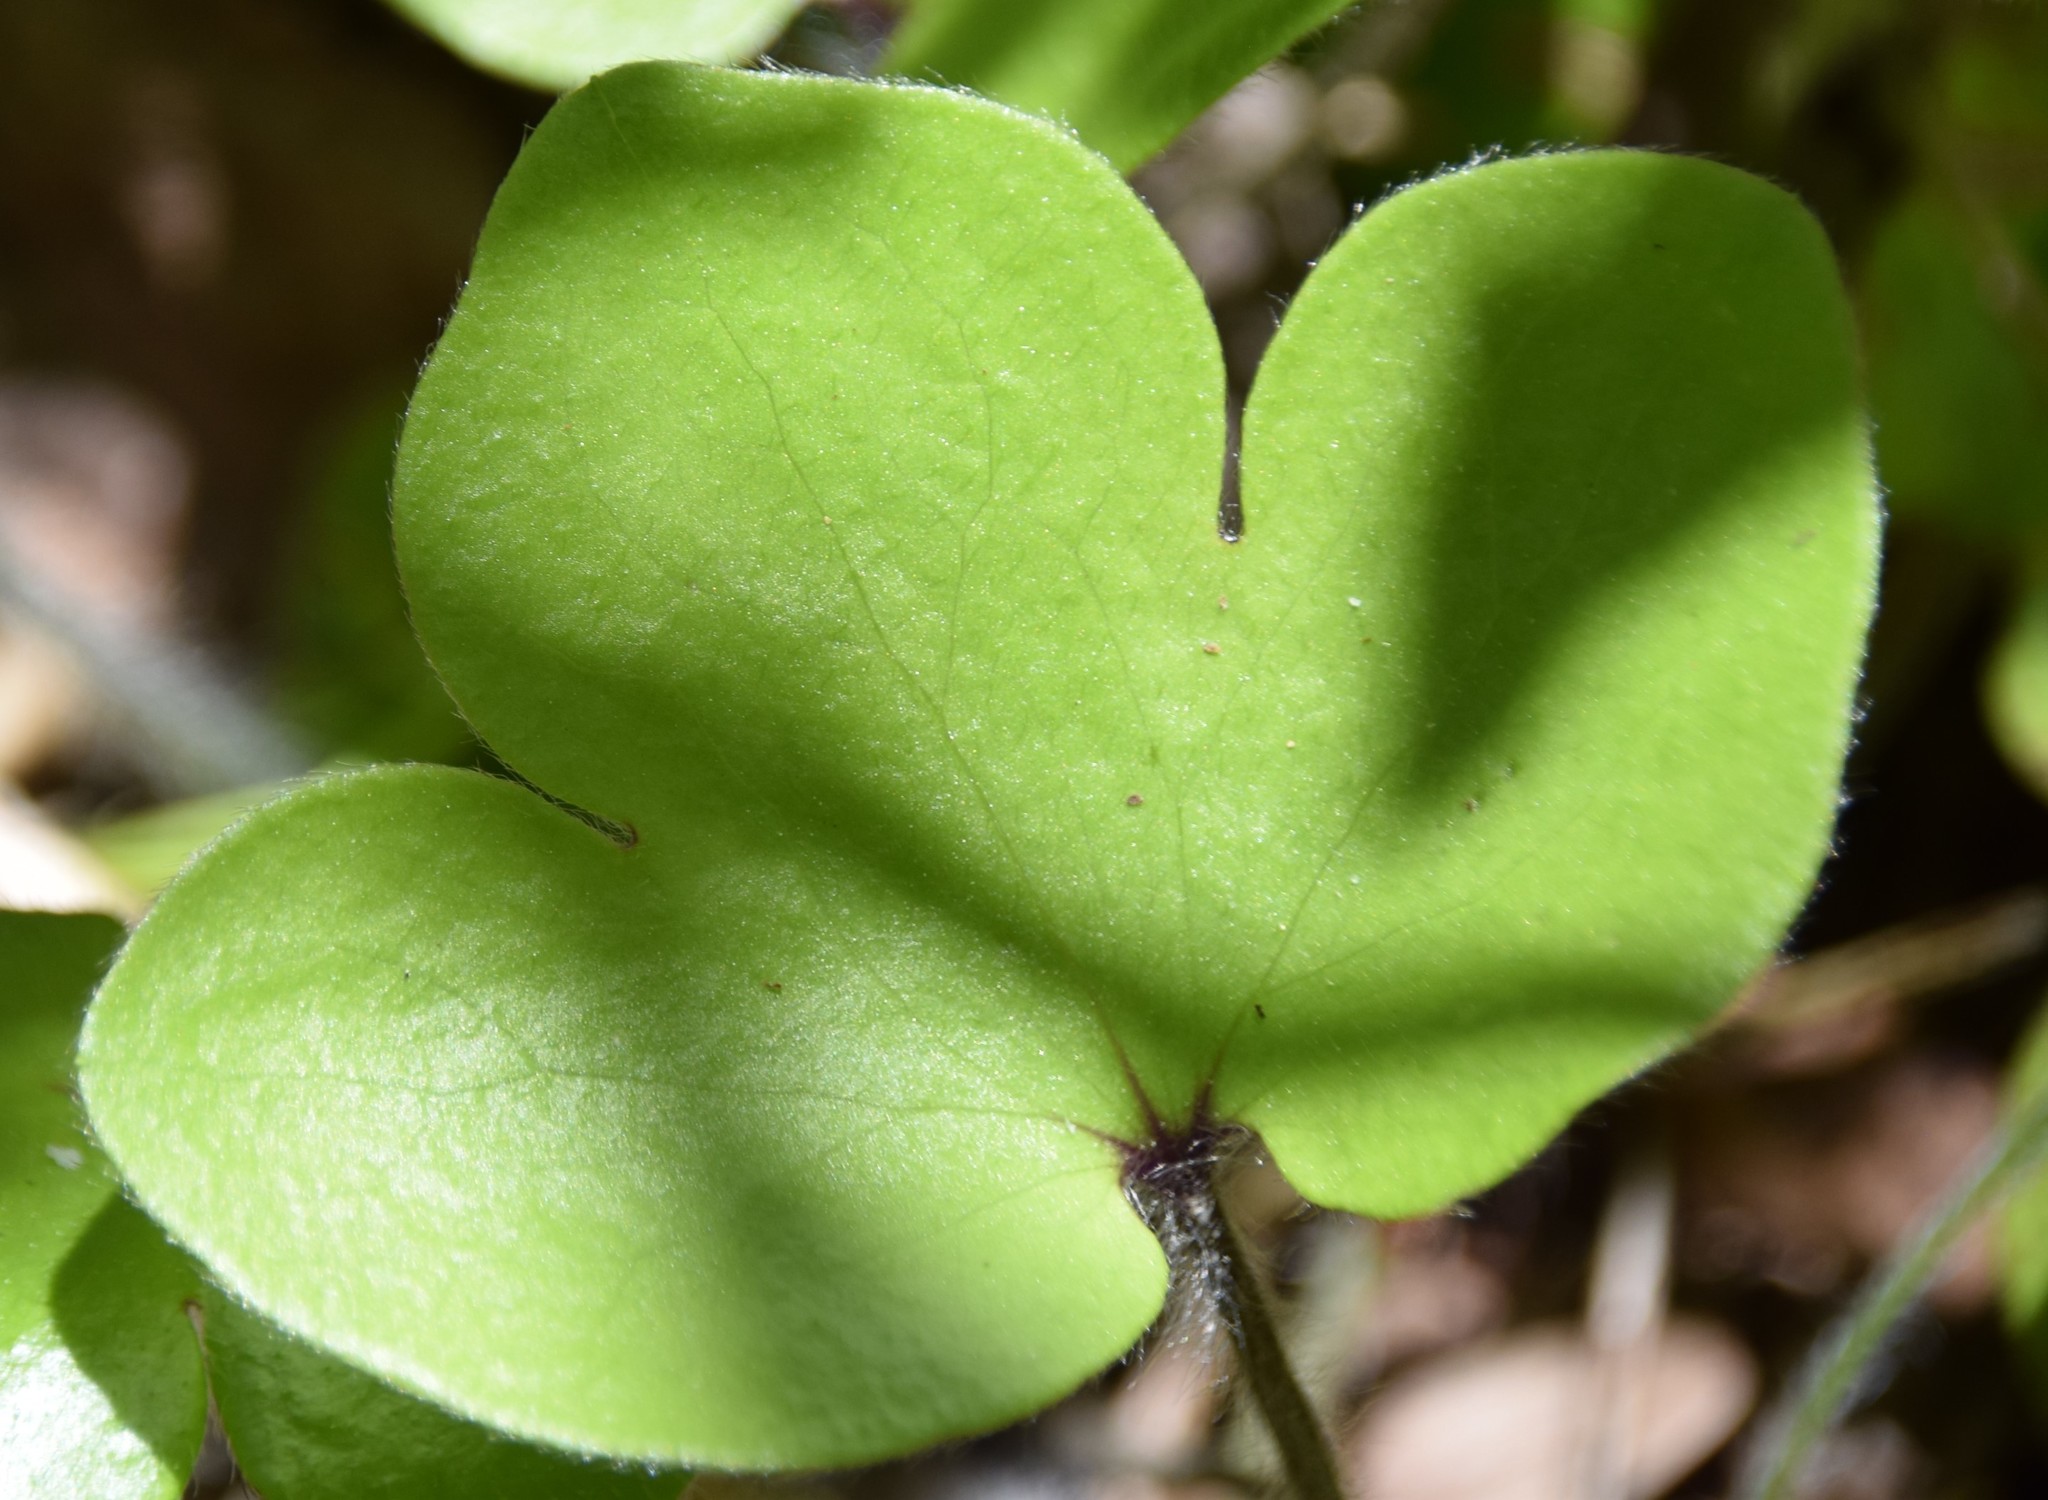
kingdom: Plantae
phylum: Tracheophyta
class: Magnoliopsida
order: Ranunculales
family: Ranunculaceae
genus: Hepatica
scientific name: Hepatica americana
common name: American hepatica
